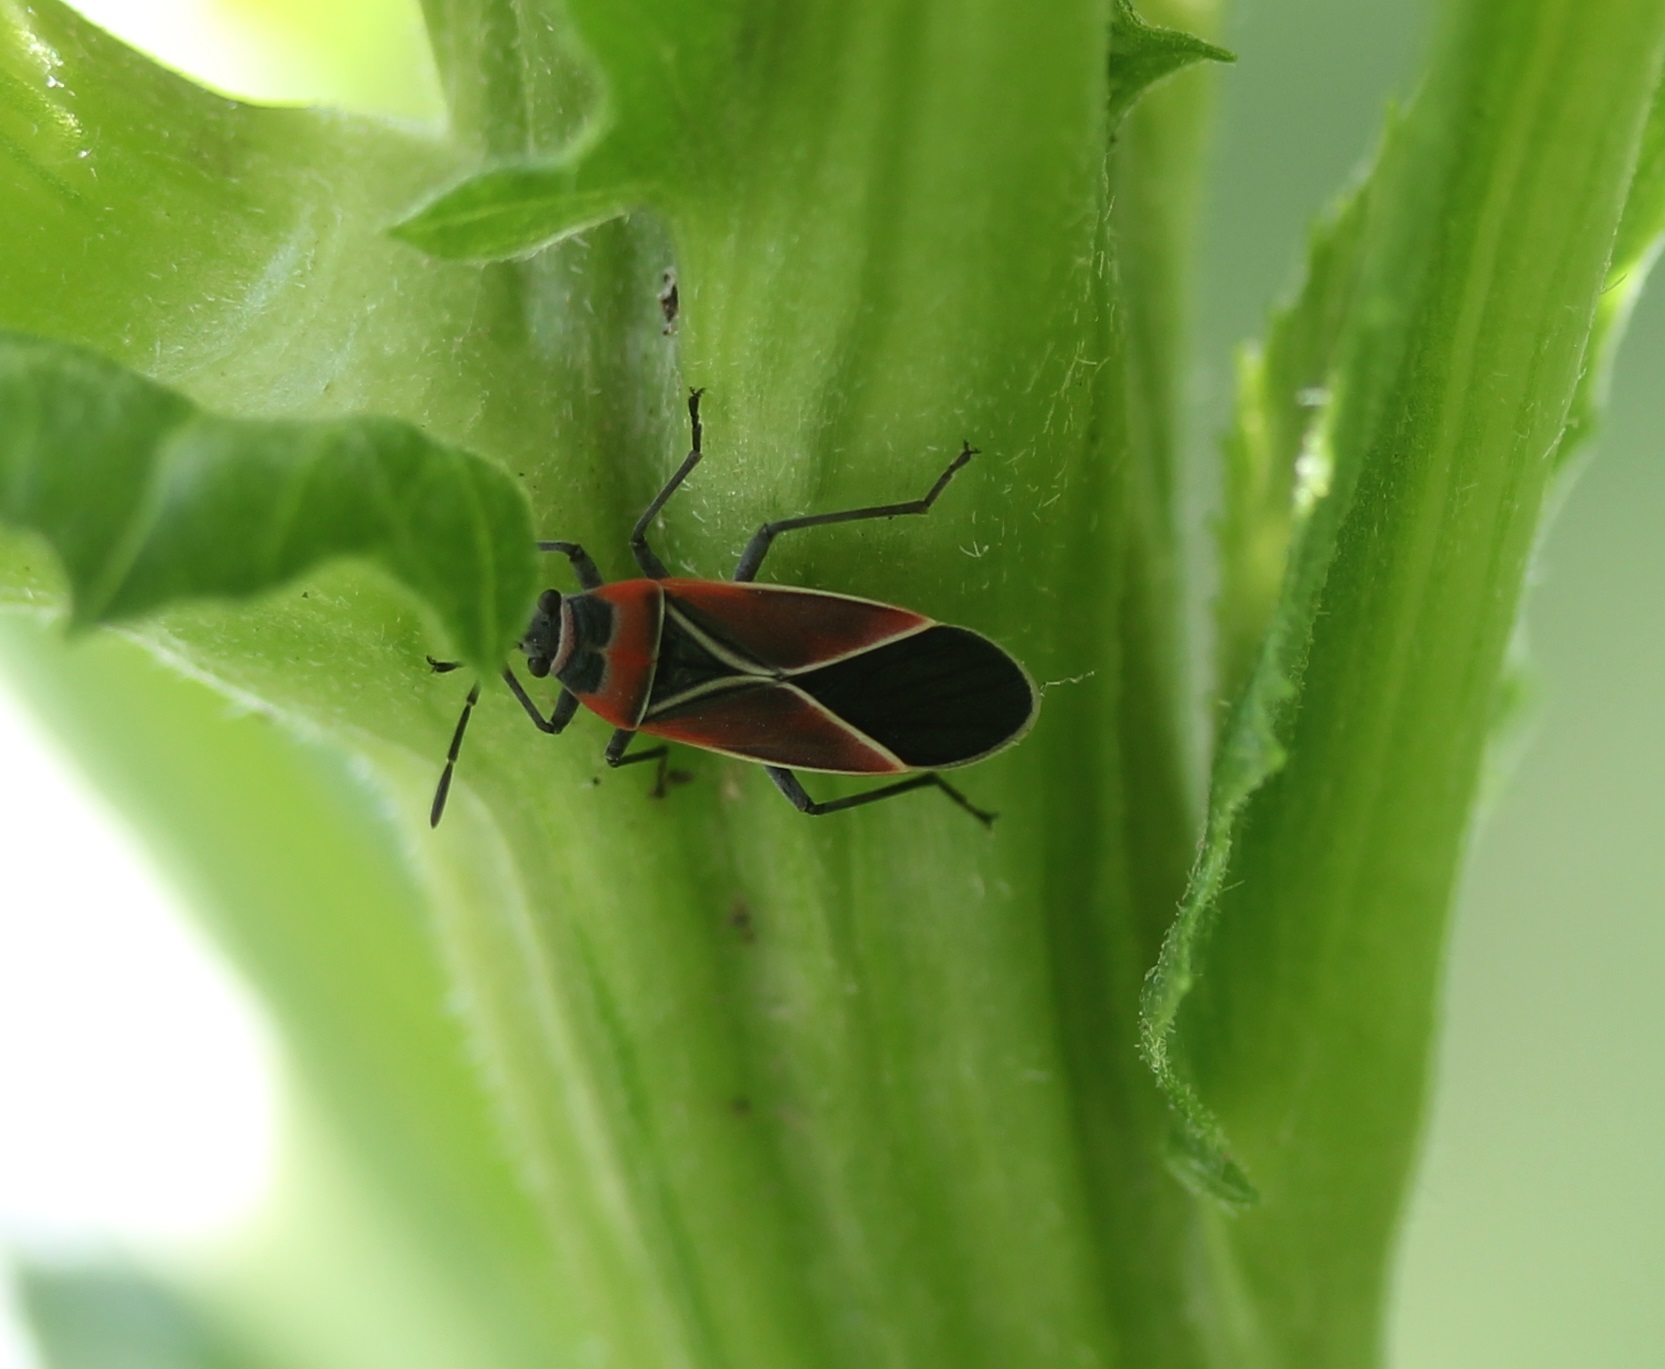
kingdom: Animalia
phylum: Arthropoda
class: Insecta
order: Hemiptera
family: Lygaeidae
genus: Neacoryphus
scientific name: Neacoryphus bicrucis
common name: Lygaeid bug
